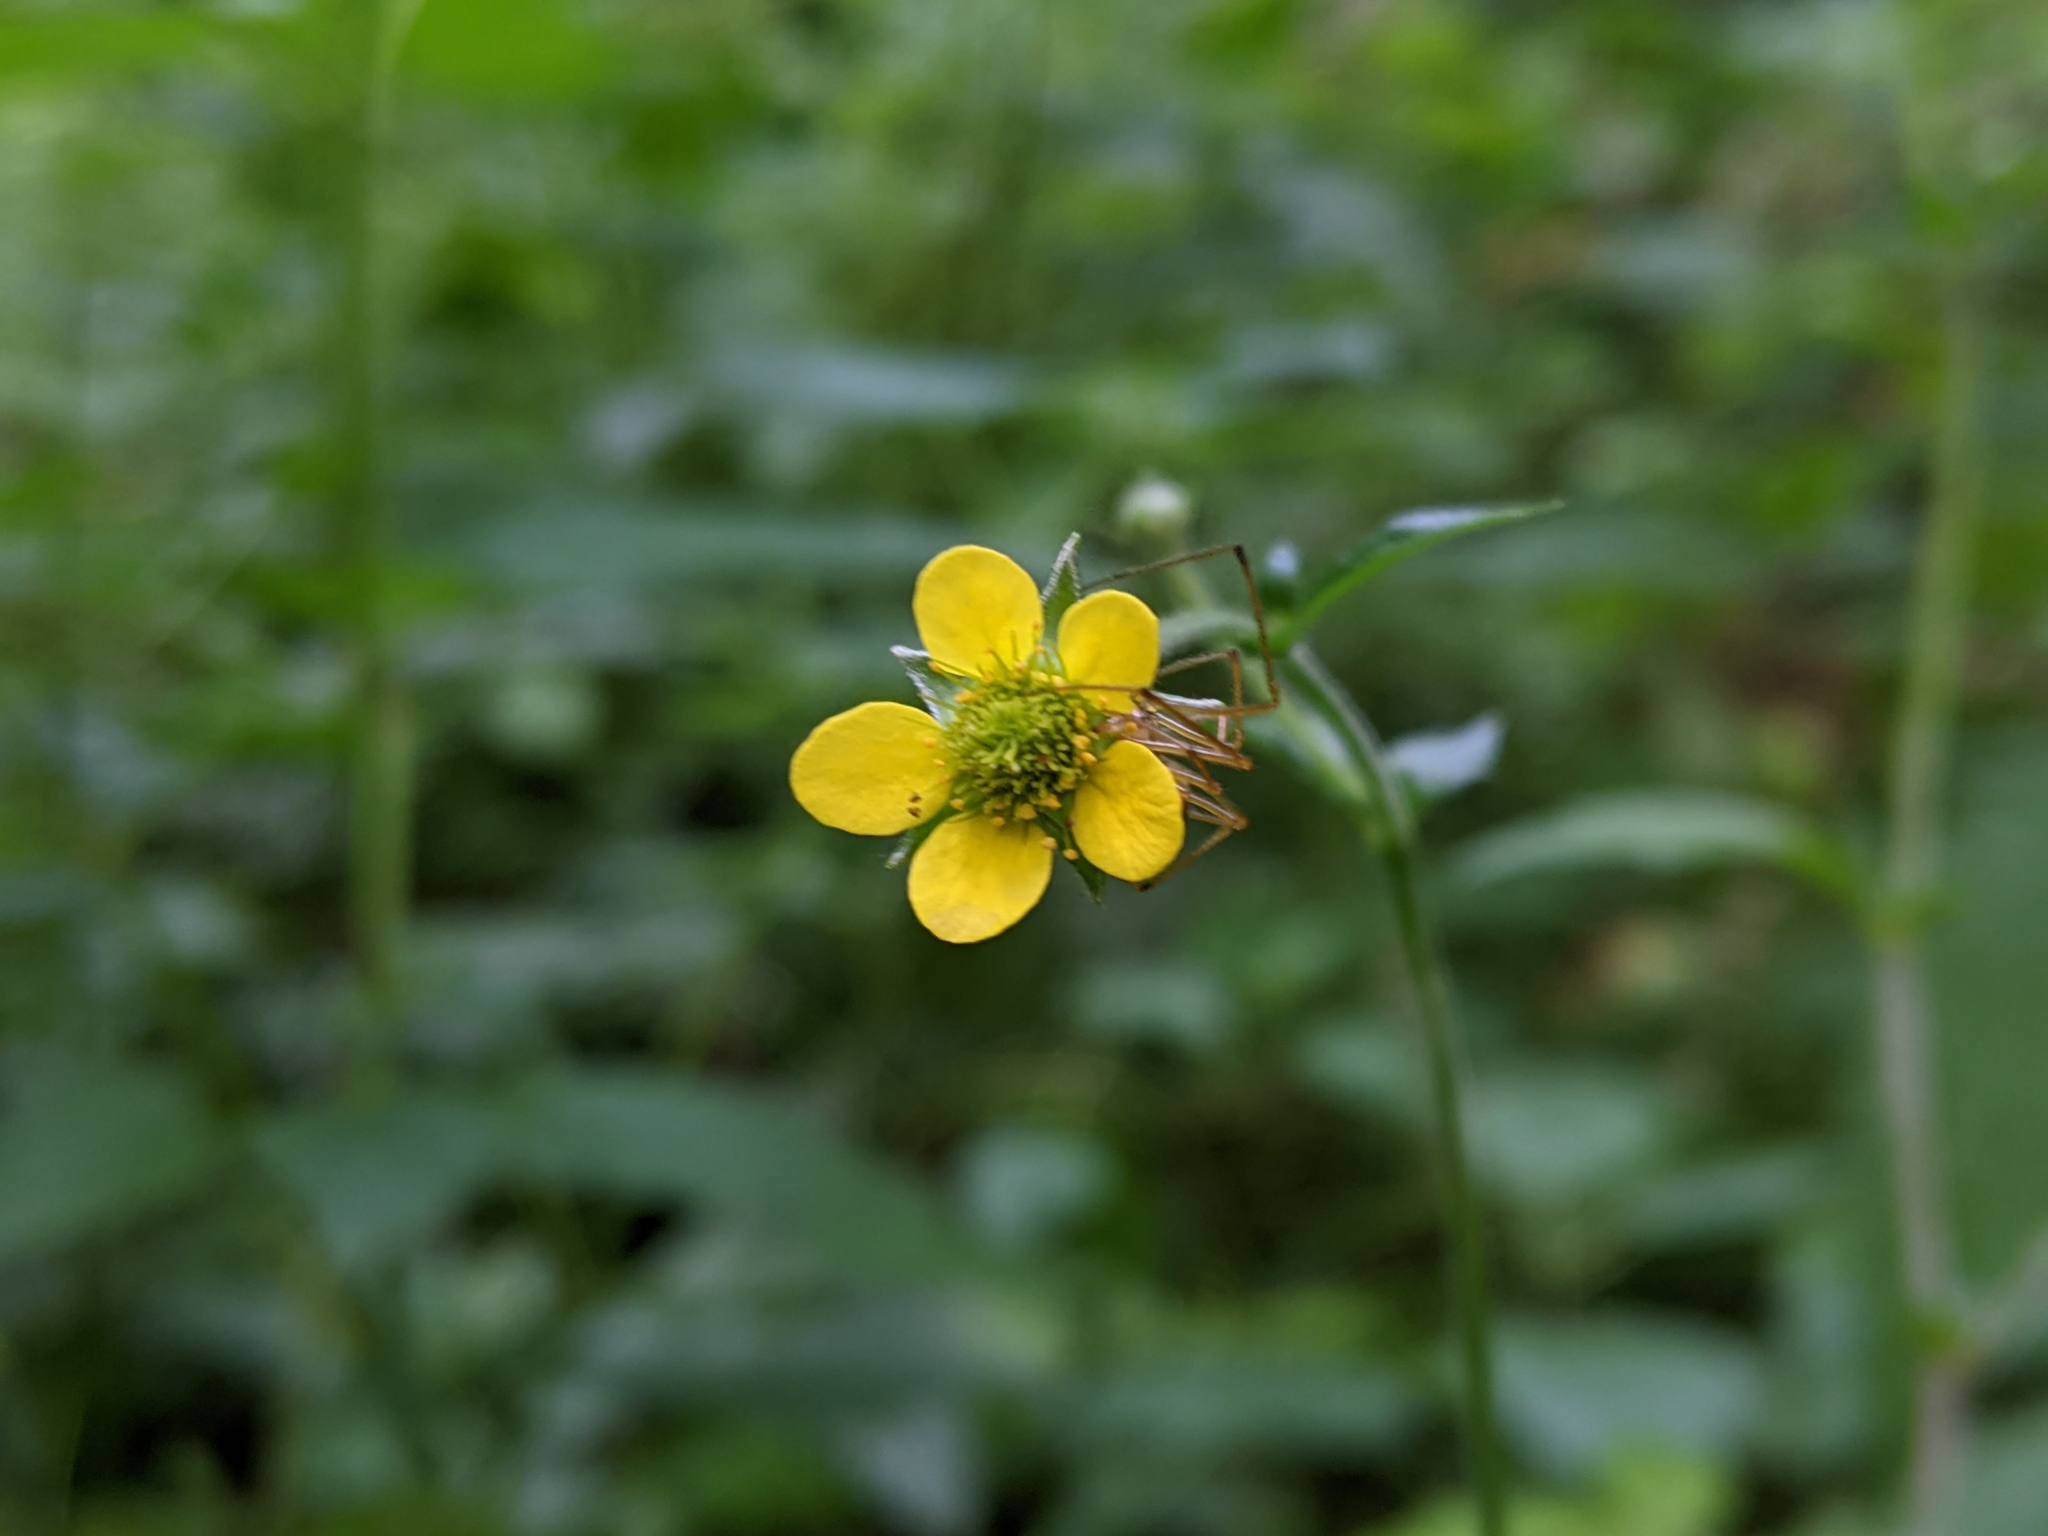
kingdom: Plantae
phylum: Tracheophyta
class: Magnoliopsida
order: Rosales
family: Rosaceae
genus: Geum
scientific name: Geum urbanum
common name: Wood avens
